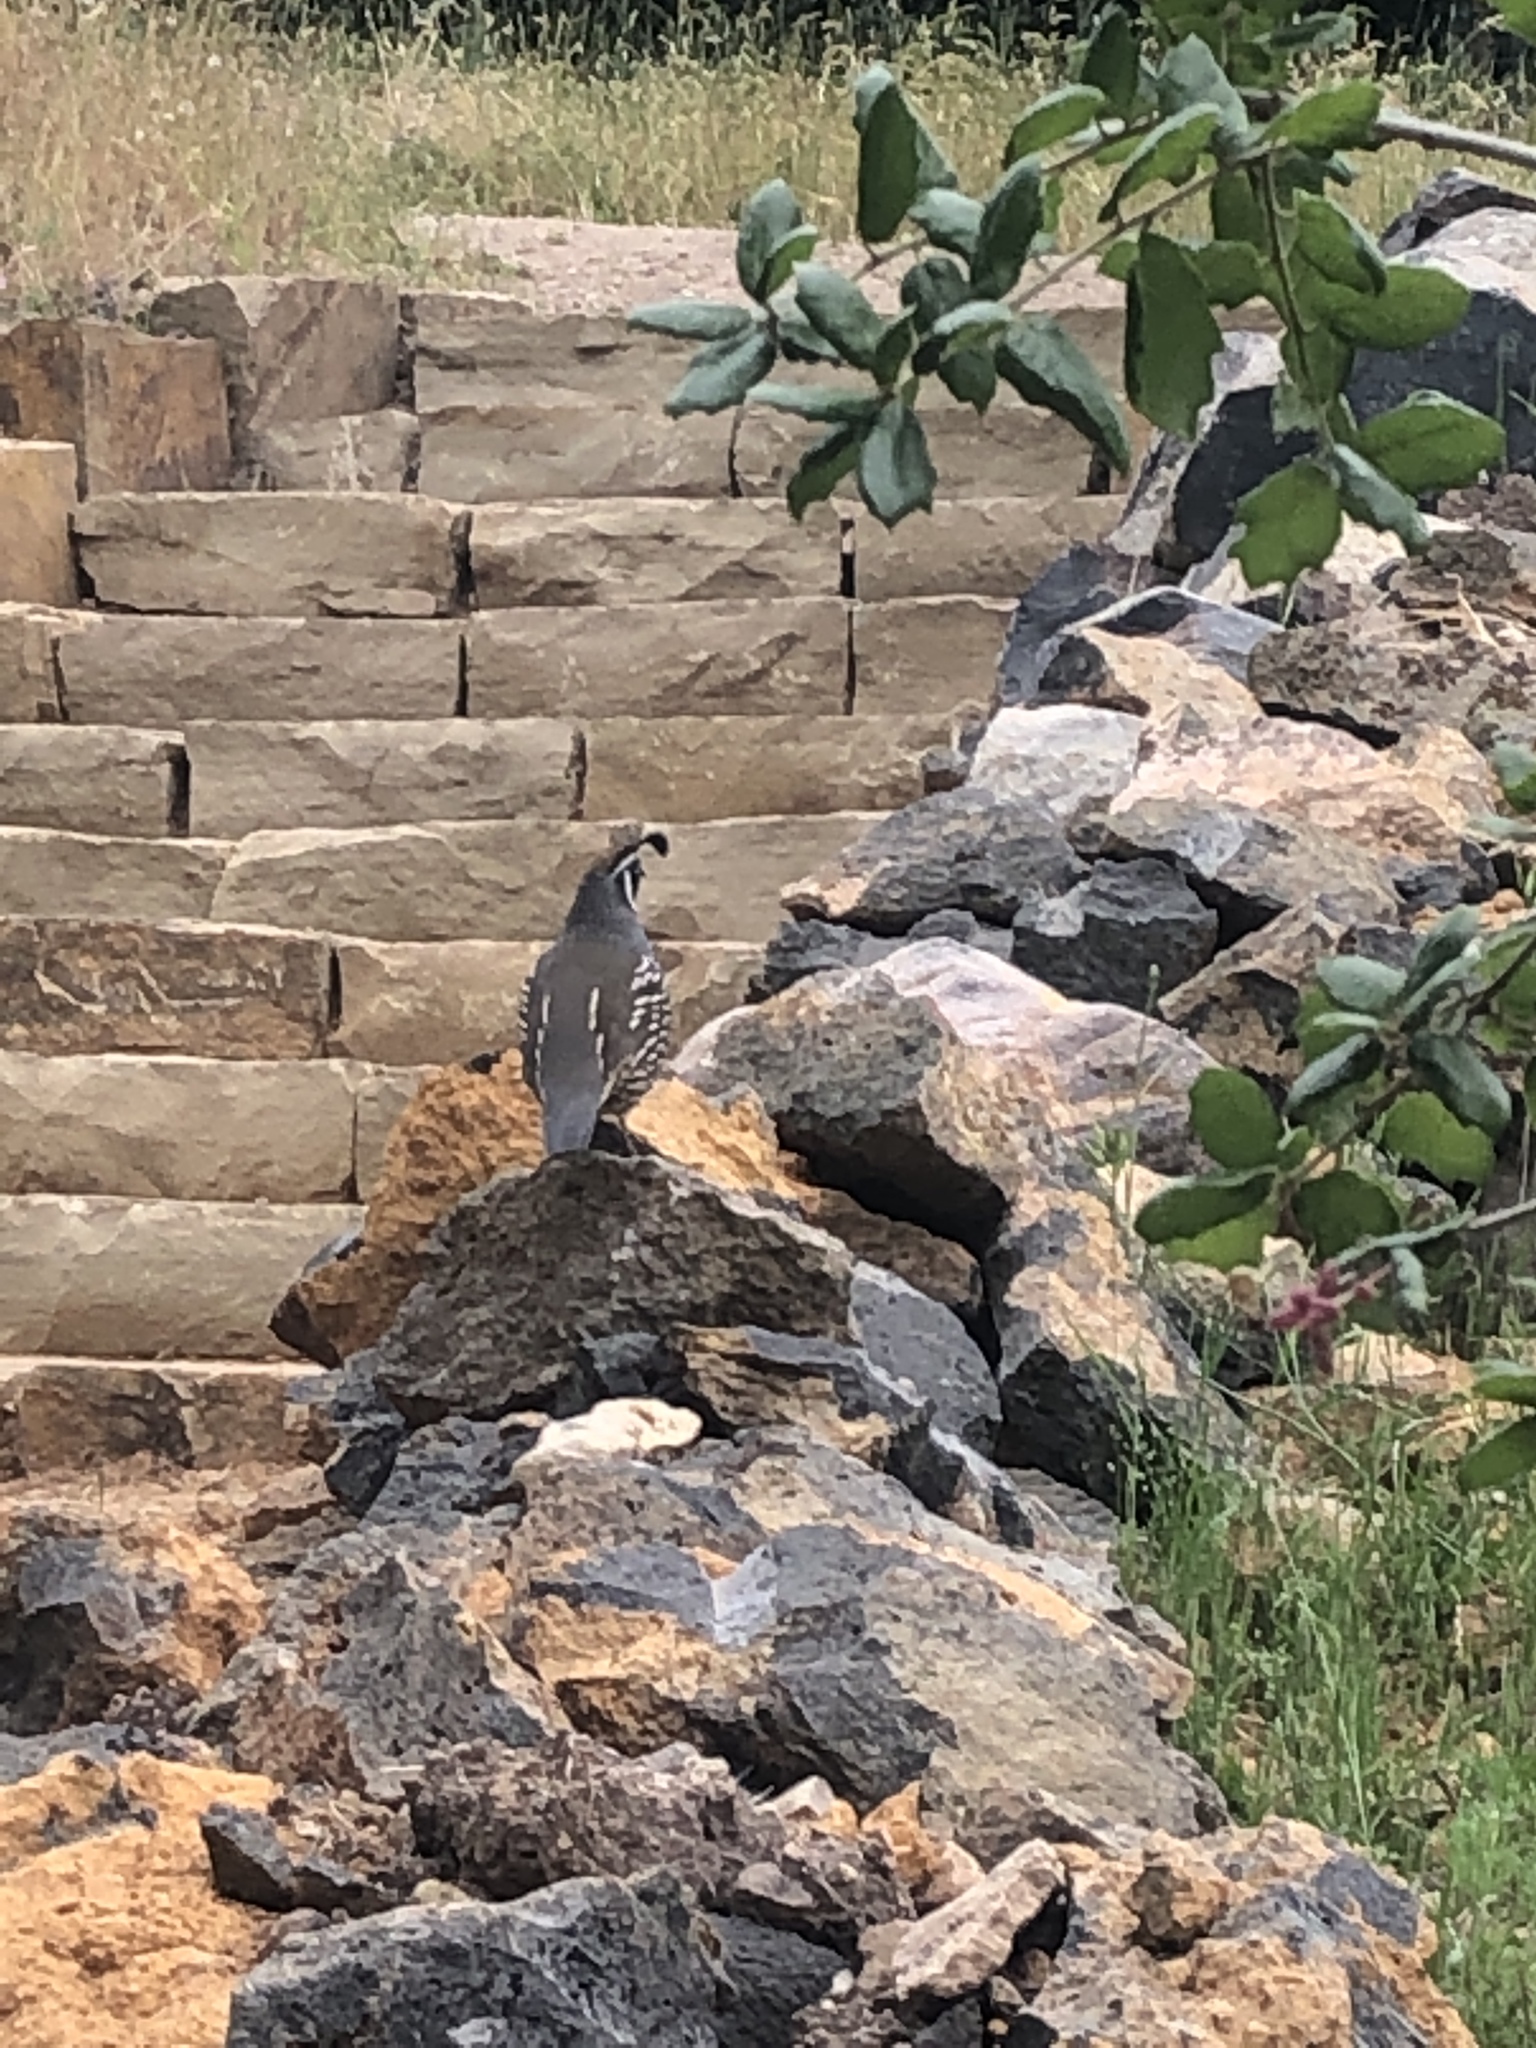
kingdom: Animalia
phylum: Chordata
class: Aves
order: Galliformes
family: Odontophoridae
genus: Callipepla
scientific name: Callipepla californica
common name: California quail
